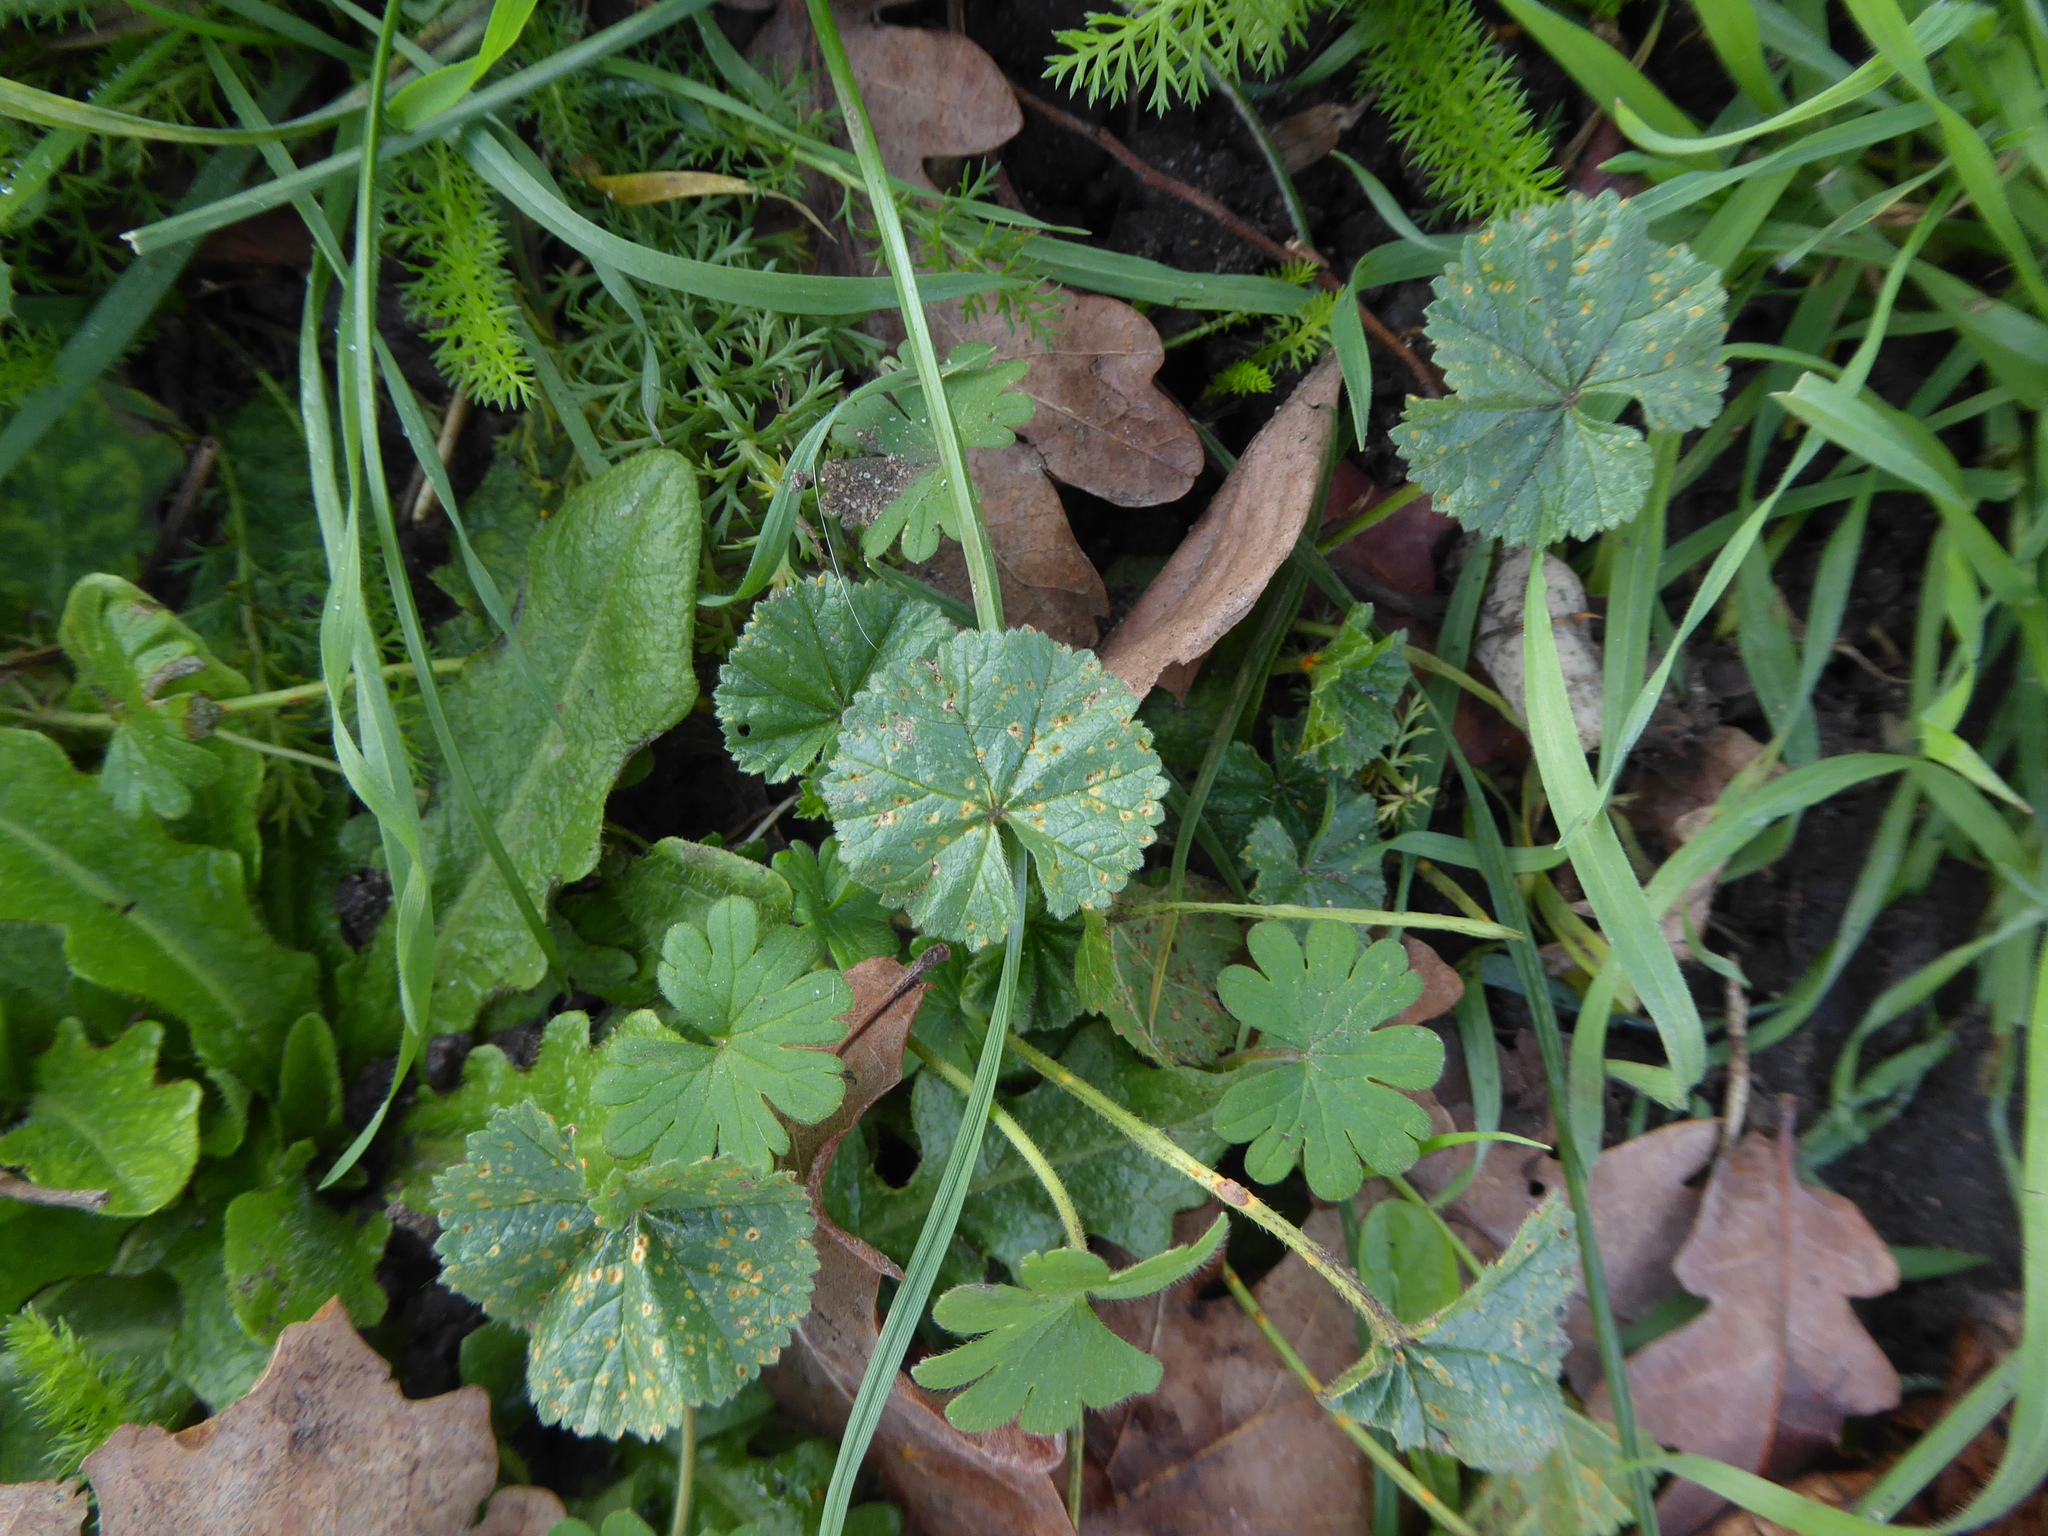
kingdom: Fungi
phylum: Basidiomycota
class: Pucciniomycetes
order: Pucciniales
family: Pucciniaceae
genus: Puccinia
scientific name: Puccinia malvacearum
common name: Hollyhock rust
